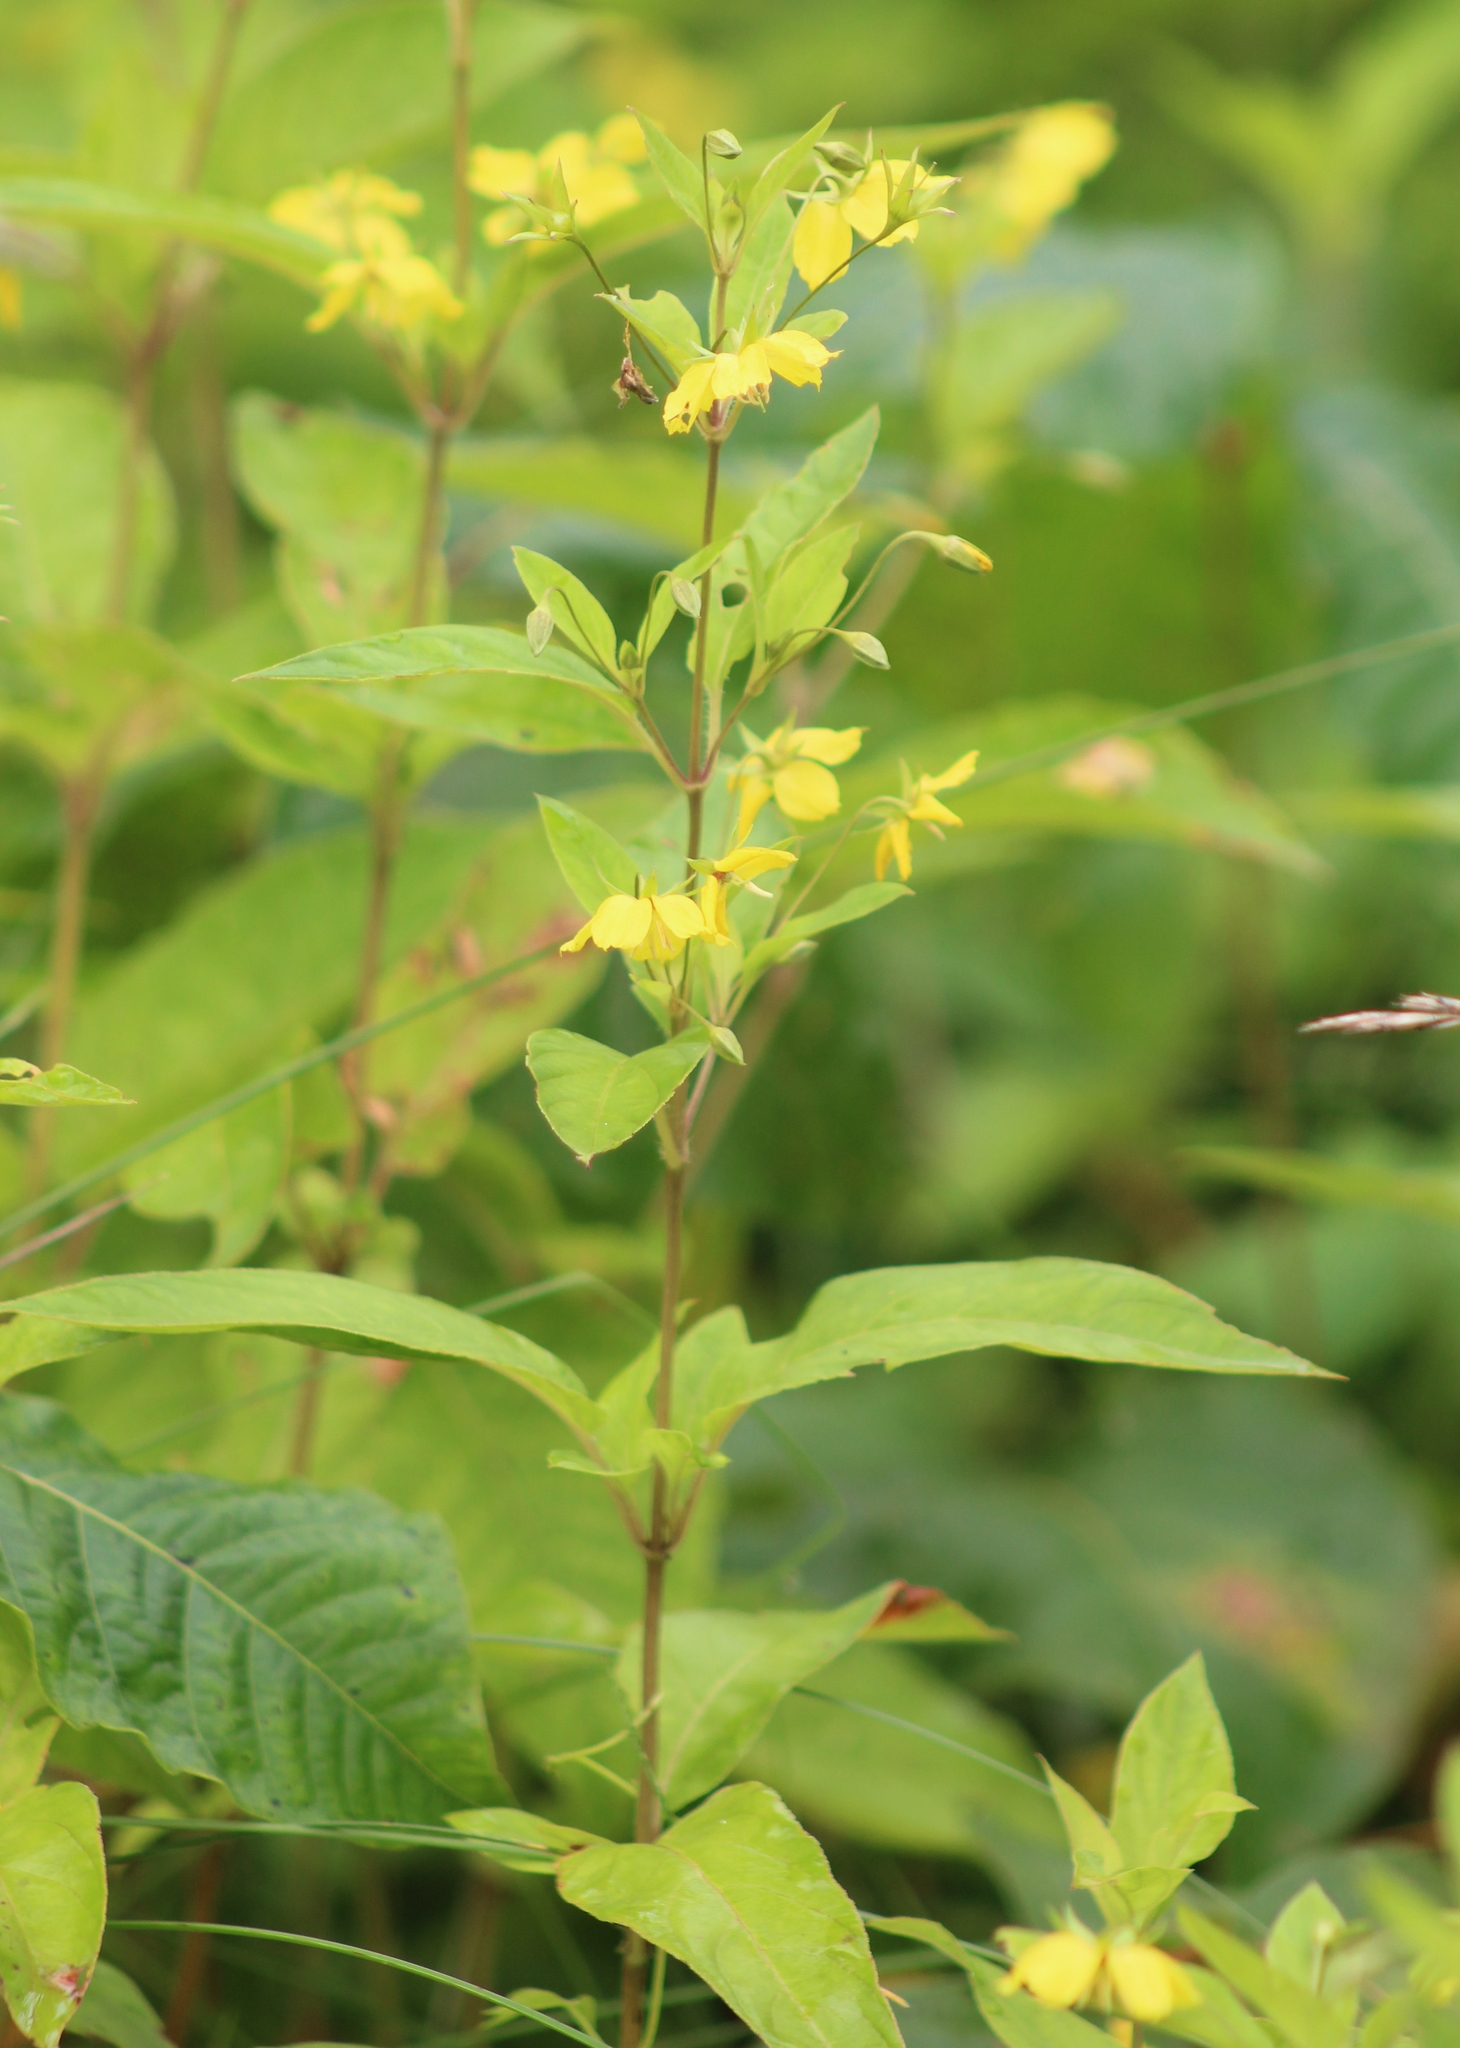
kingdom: Plantae
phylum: Tracheophyta
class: Magnoliopsida
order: Ericales
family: Primulaceae
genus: Lysimachia
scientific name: Lysimachia ciliata
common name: Fringed loosestrife
